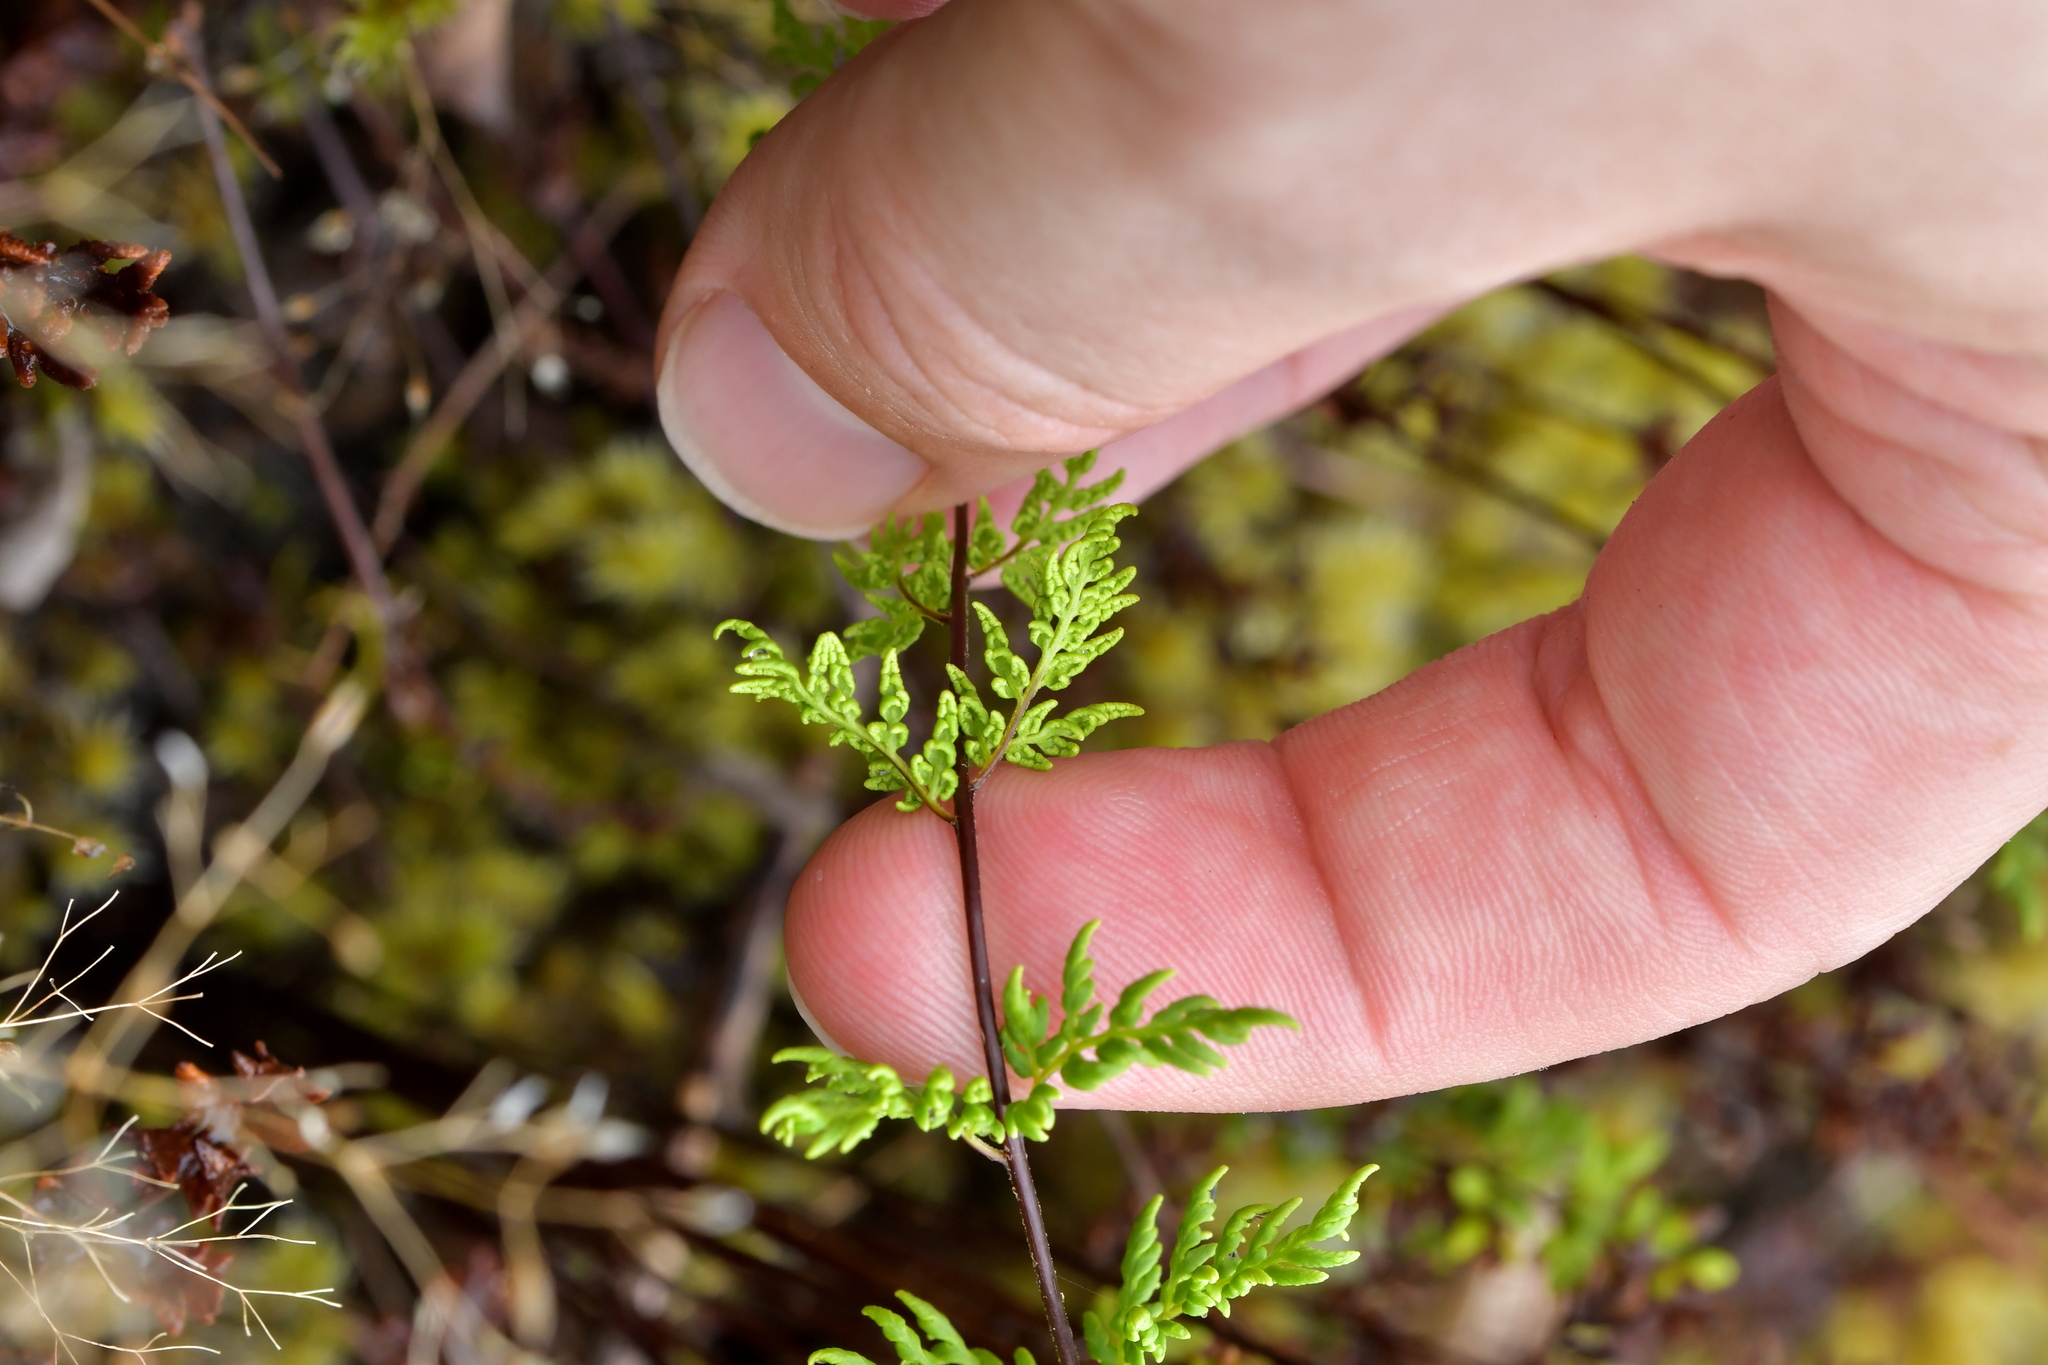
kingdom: Plantae
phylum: Tracheophyta
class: Polypodiopsida
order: Polypodiales
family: Pteridaceae
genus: Cheilanthes
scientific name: Cheilanthes sieberi
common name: Mulga fern
